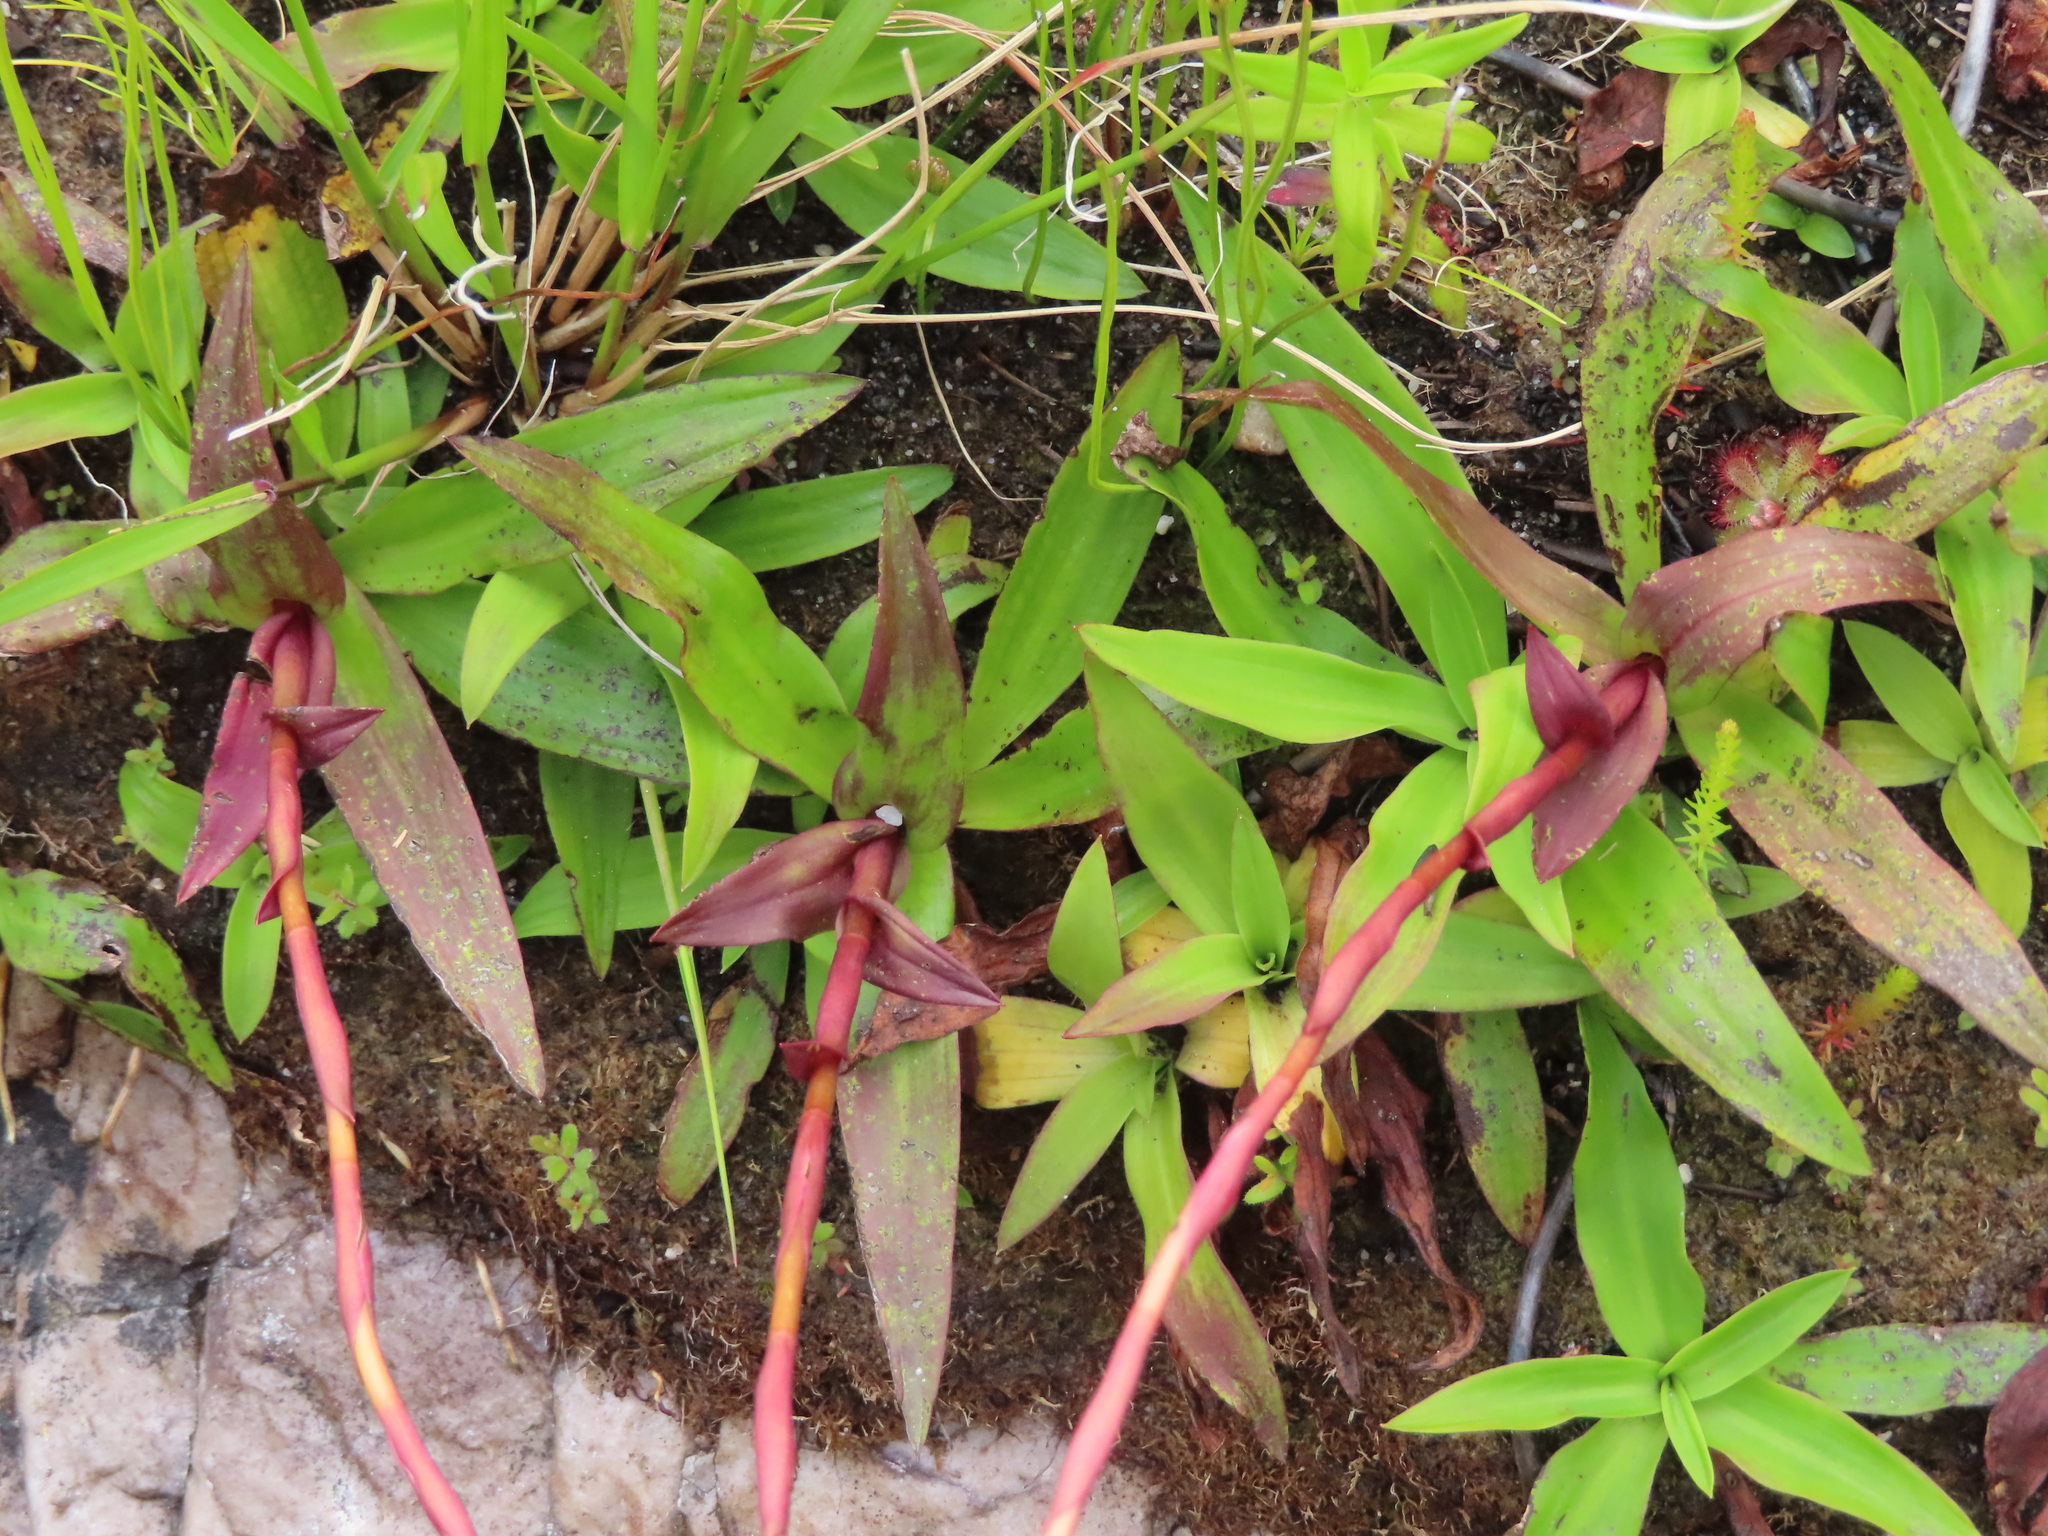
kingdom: Plantae
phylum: Tracheophyta
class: Liliopsida
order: Asparagales
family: Orchidaceae
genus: Disa
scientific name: Disa tripetaloides
